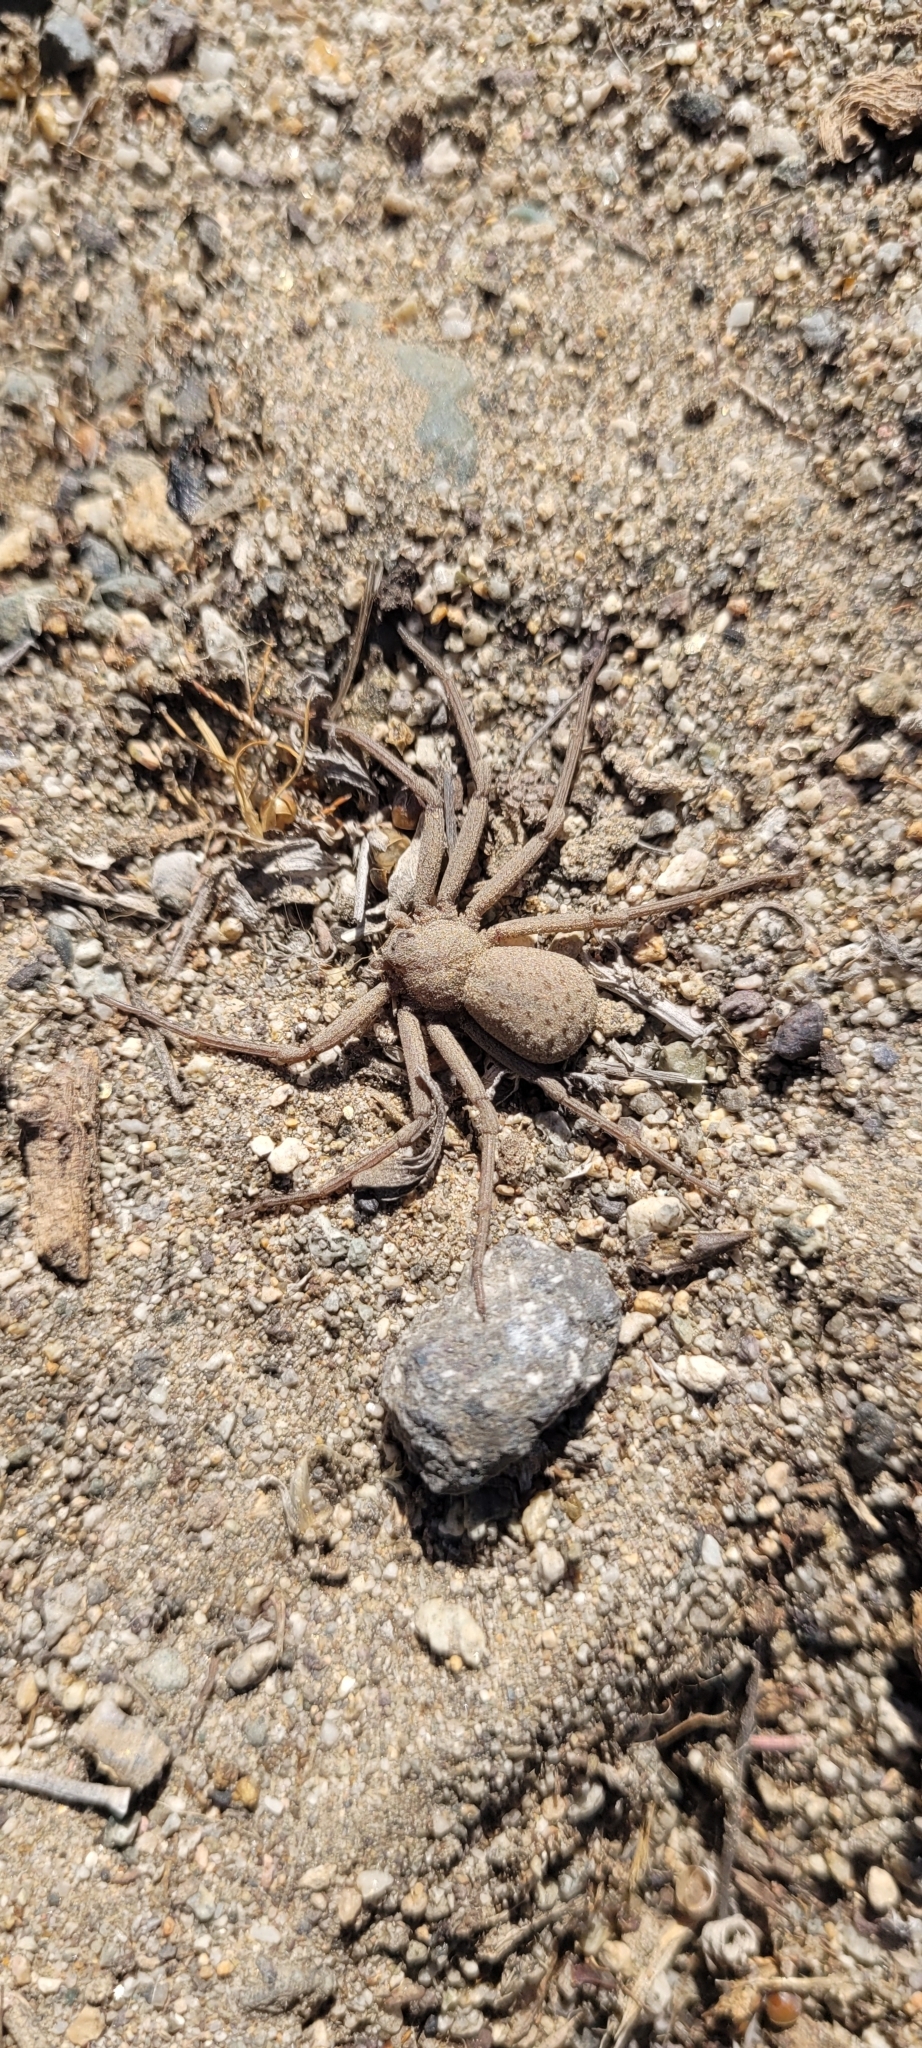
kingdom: Animalia
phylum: Arthropoda
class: Arachnida
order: Araneae
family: Sicariidae
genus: Sicarius
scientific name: Sicarius thomisoides
